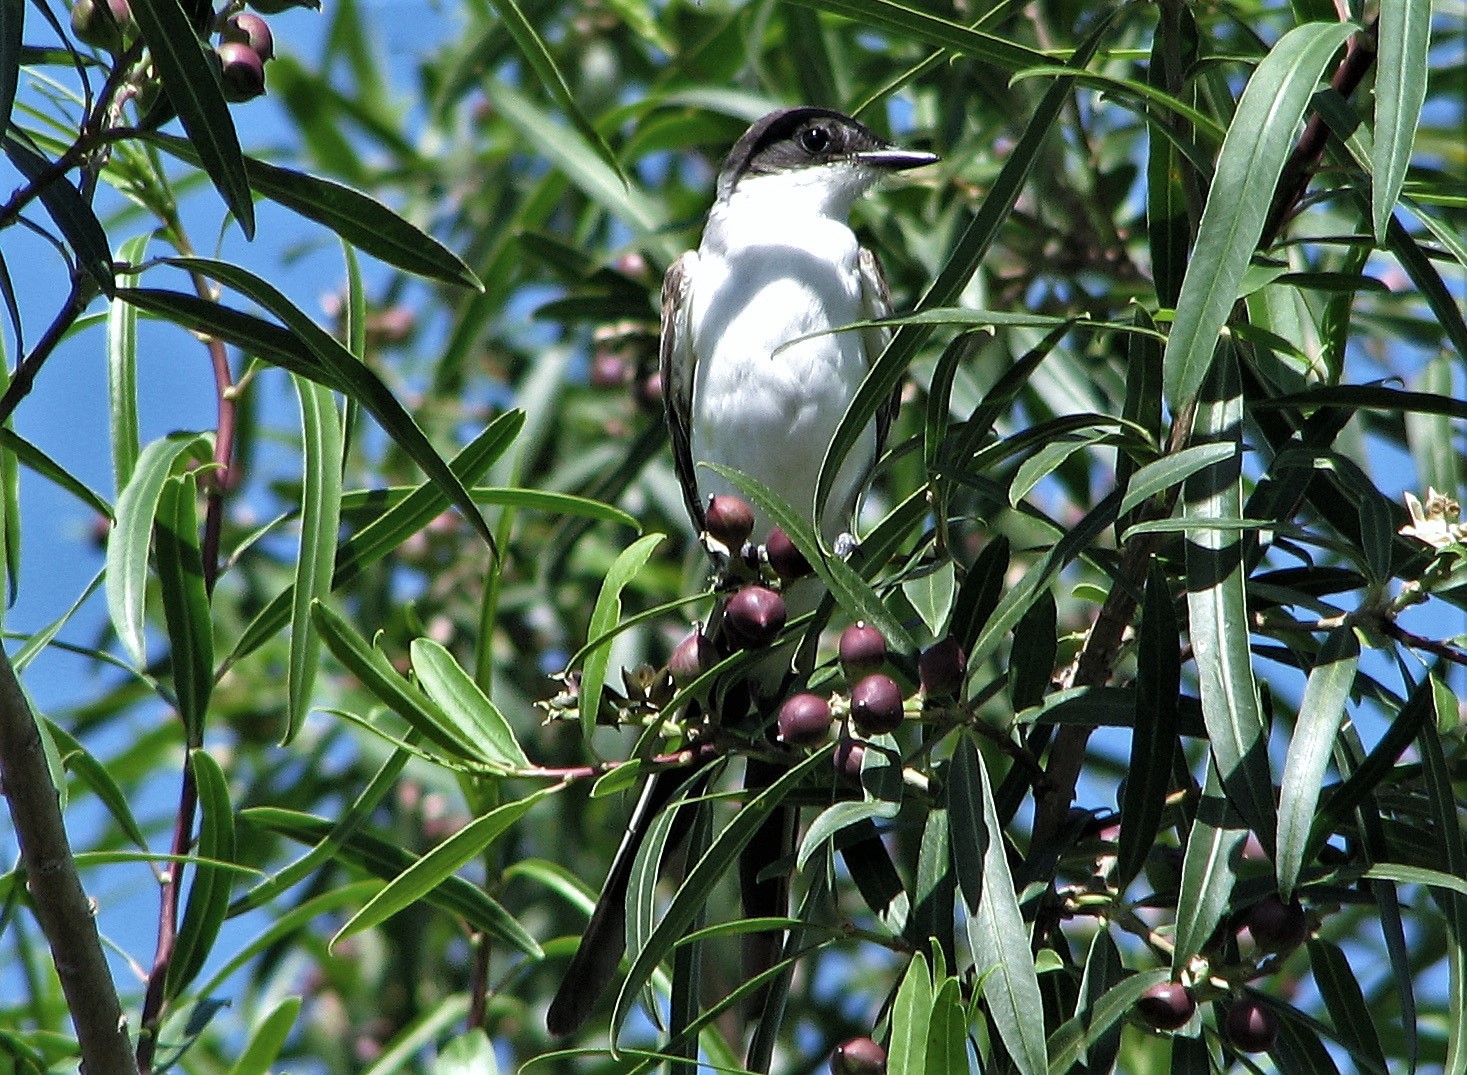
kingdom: Animalia
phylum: Chordata
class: Aves
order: Passeriformes
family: Tyrannidae
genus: Tyrannus
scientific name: Tyrannus savana
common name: Fork-tailed flycatcher
